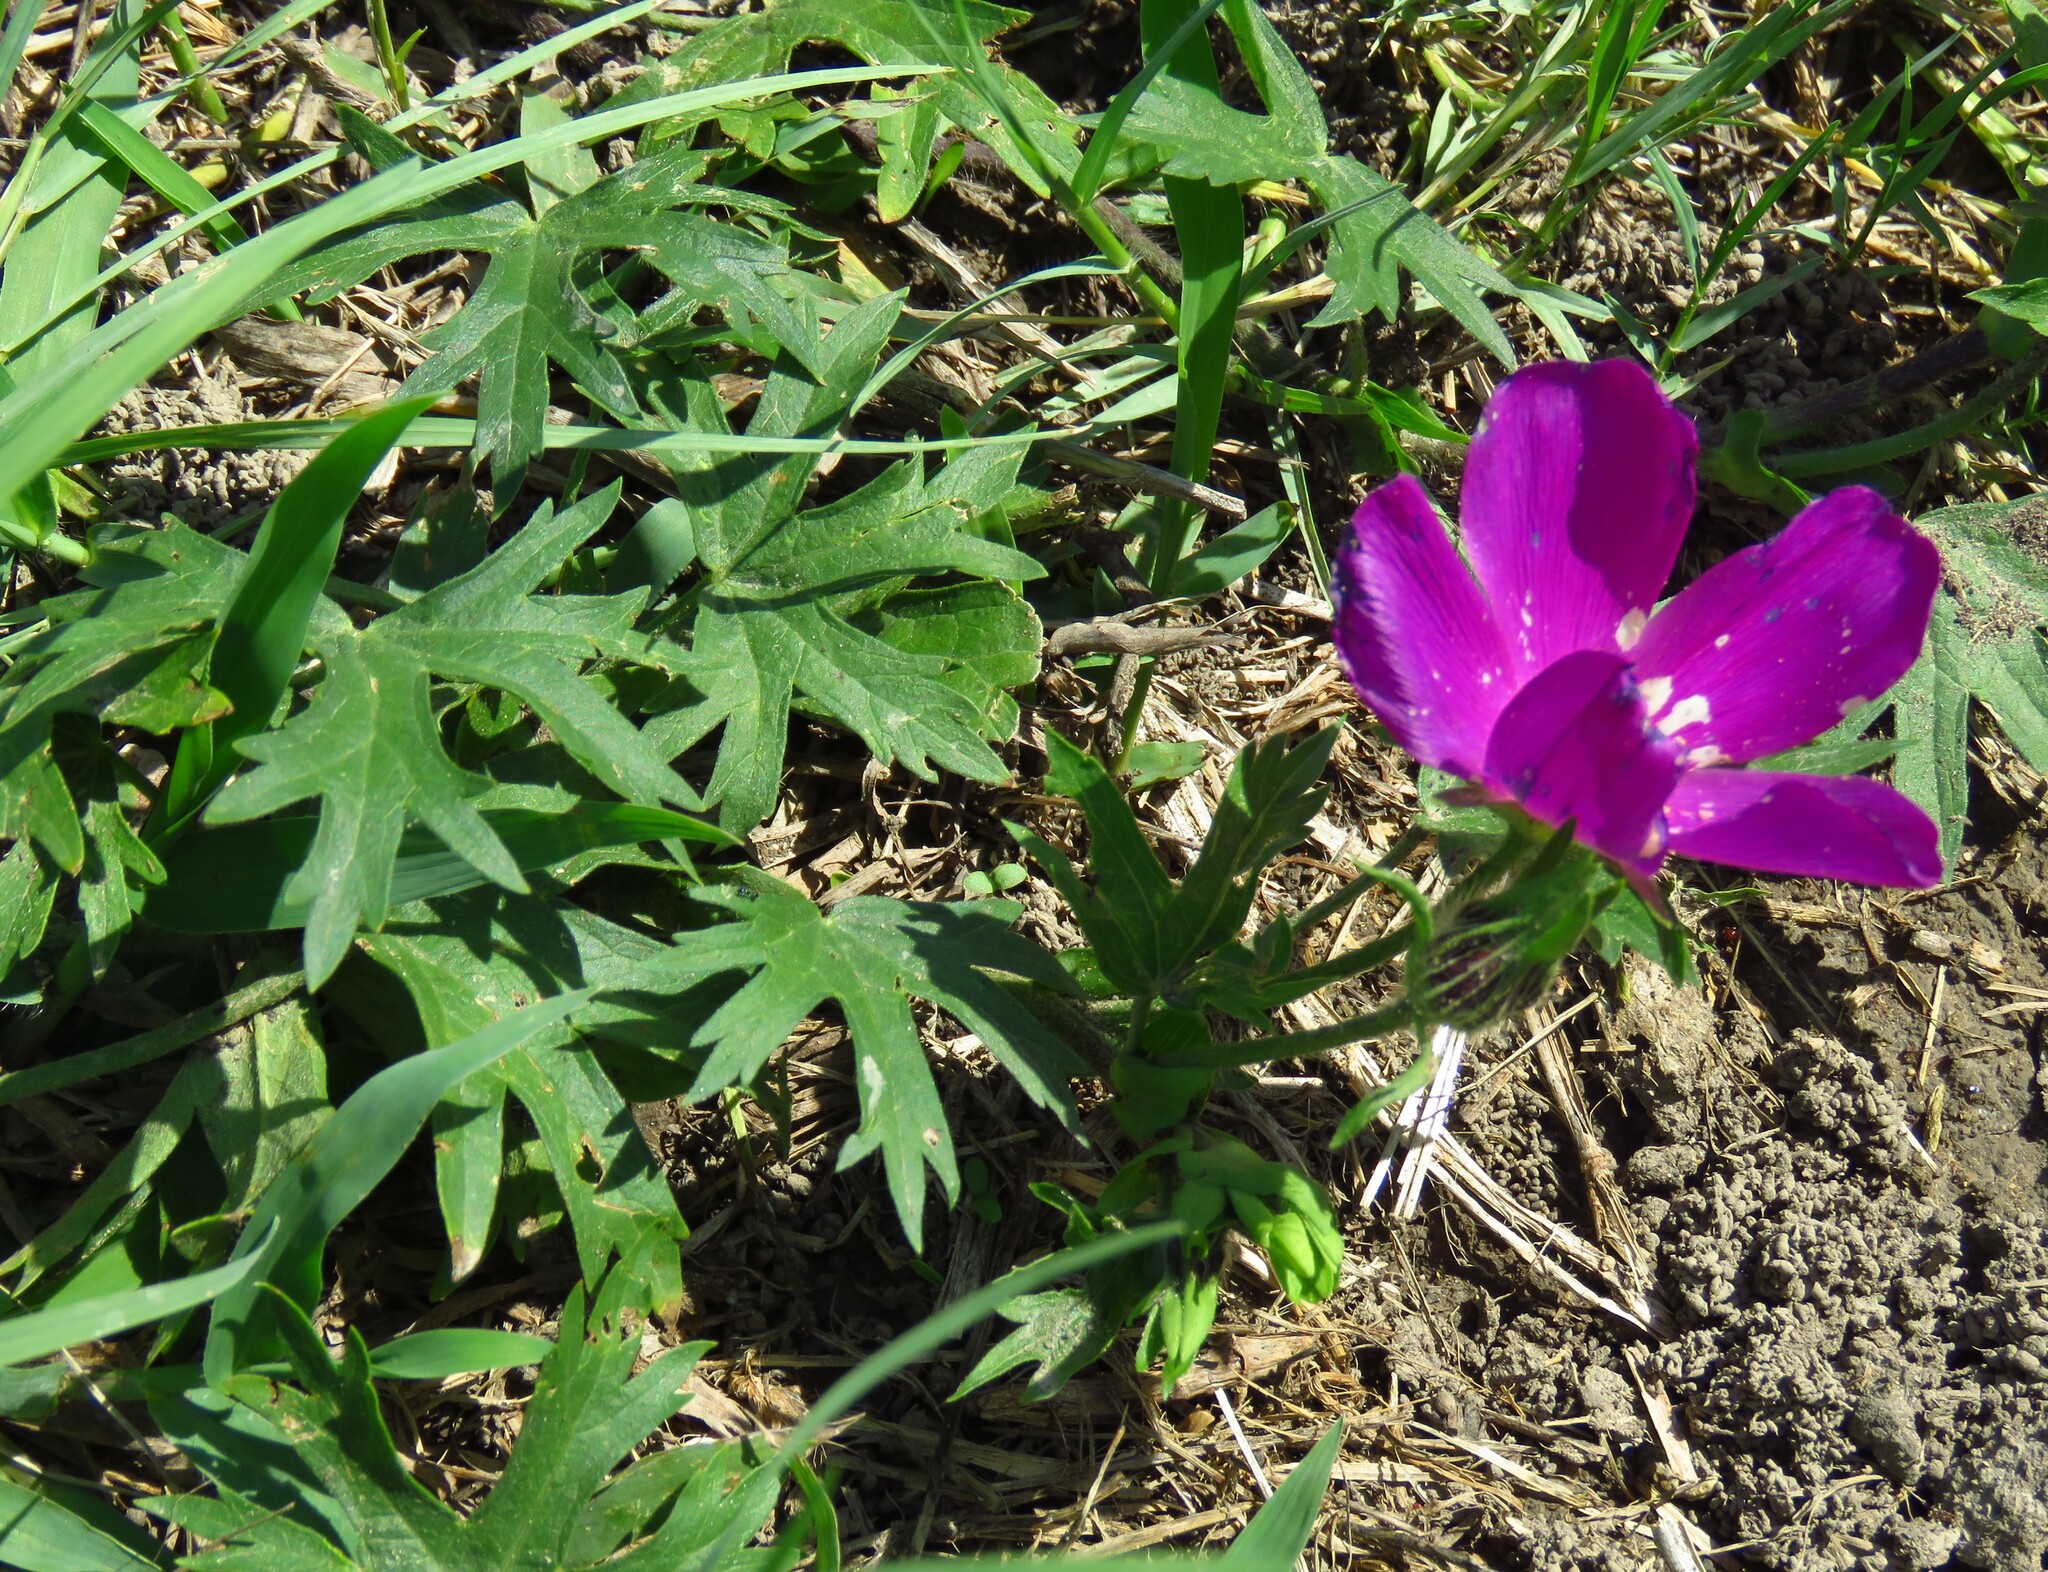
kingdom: Plantae
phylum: Tracheophyta
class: Magnoliopsida
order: Malvales
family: Malvaceae
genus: Callirhoe
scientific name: Callirhoe involucrata
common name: Purple poppy-mallow
